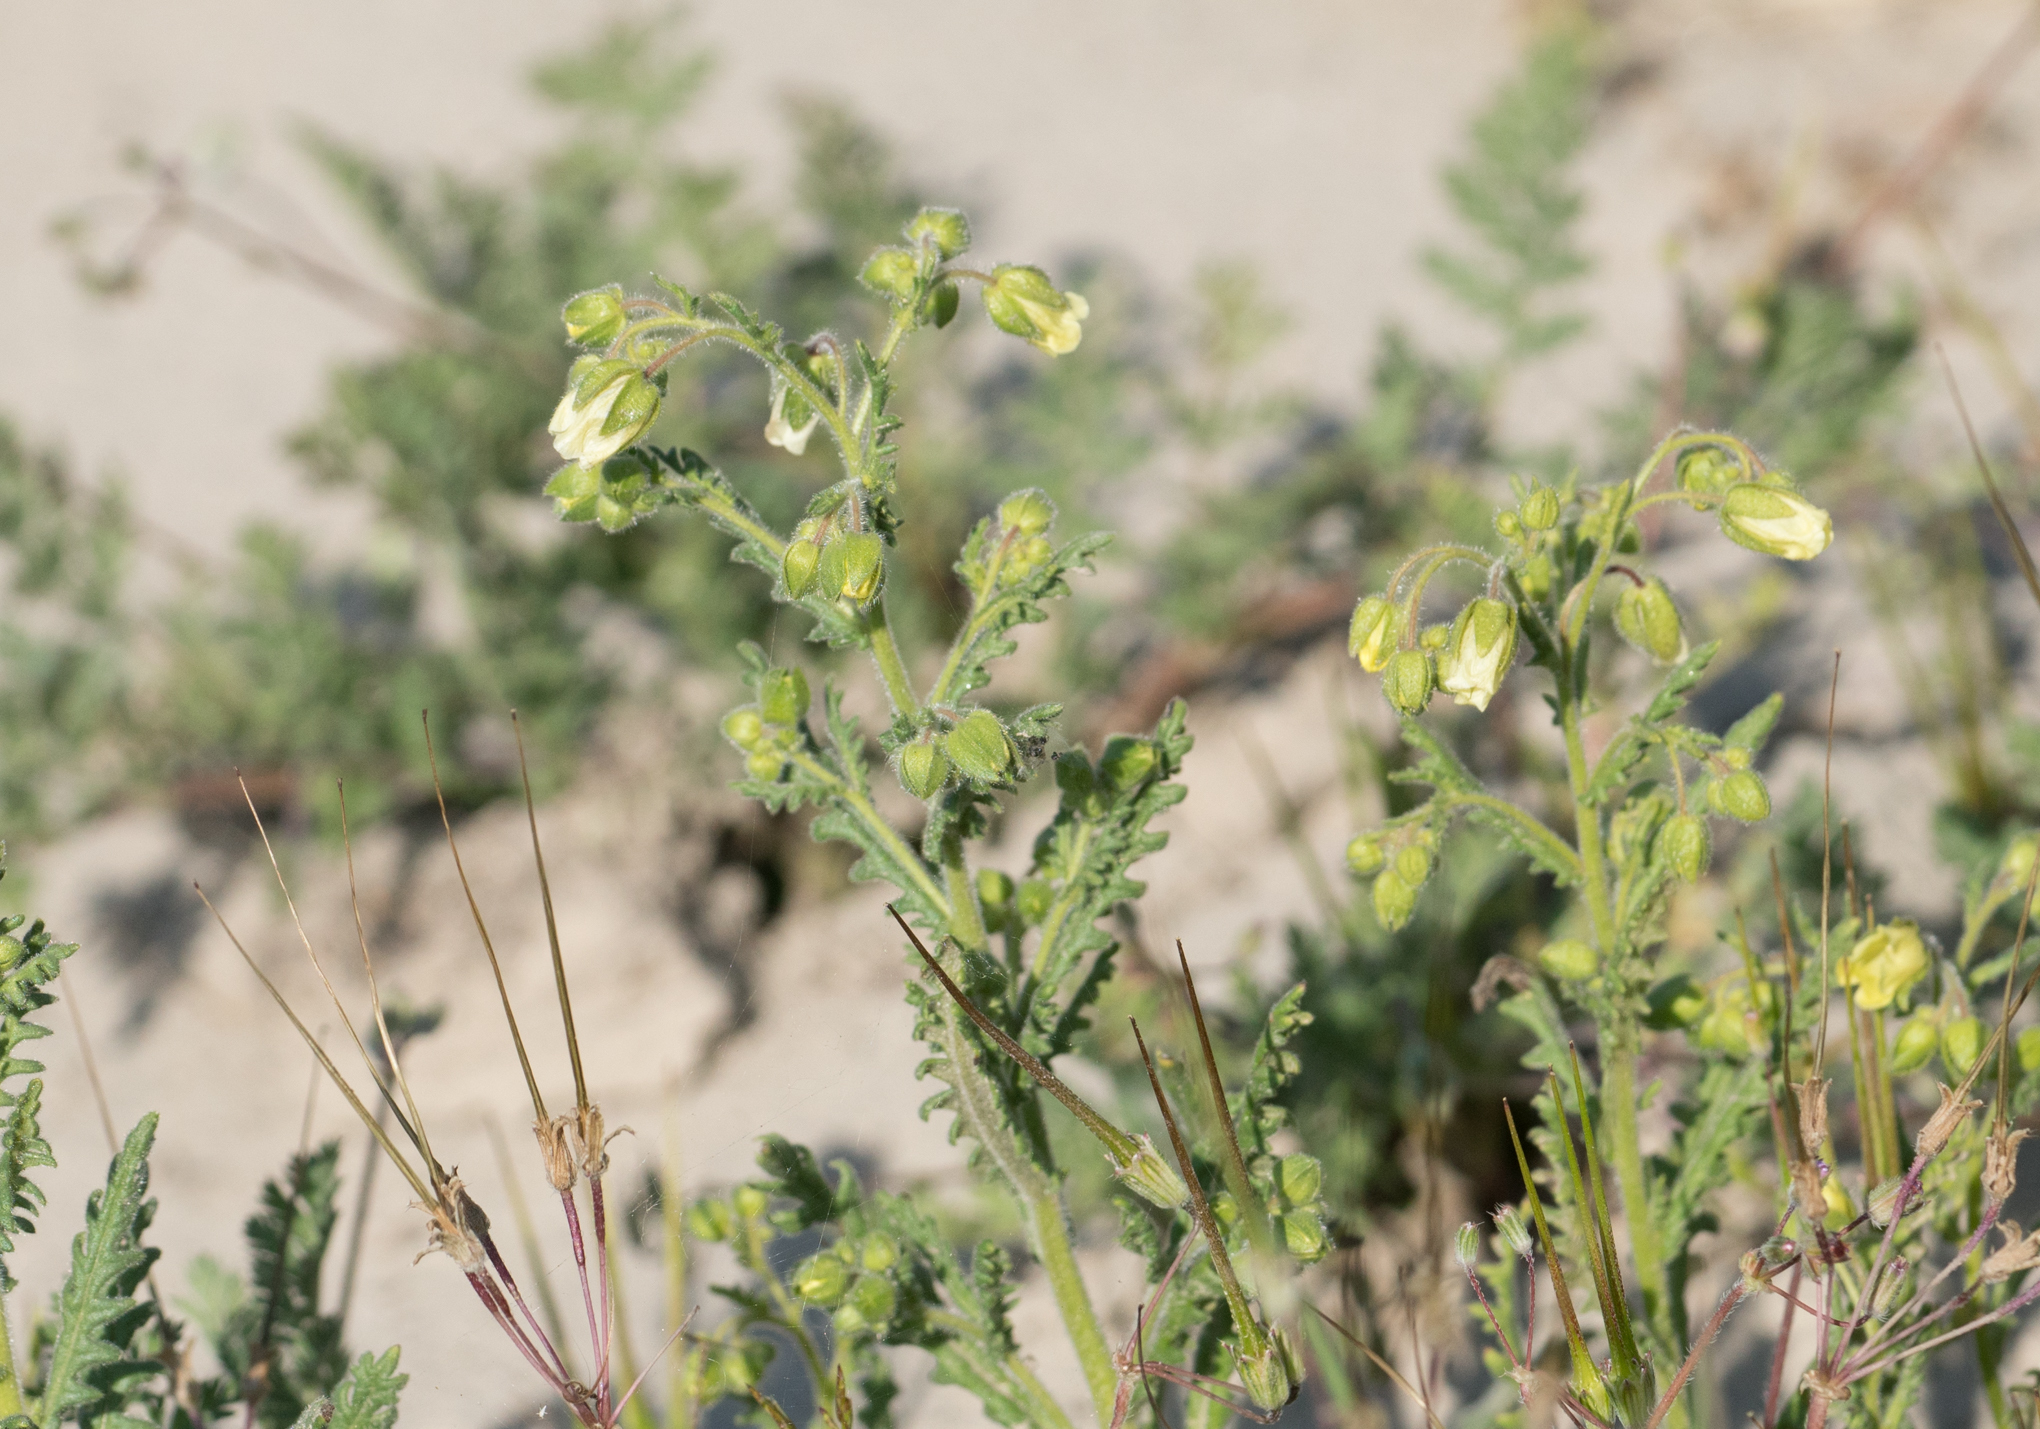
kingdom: Plantae
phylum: Tracheophyta
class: Magnoliopsida
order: Boraginales
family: Hydrophyllaceae
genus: Emmenanthe
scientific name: Emmenanthe penduliflora
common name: Whispering-bells
